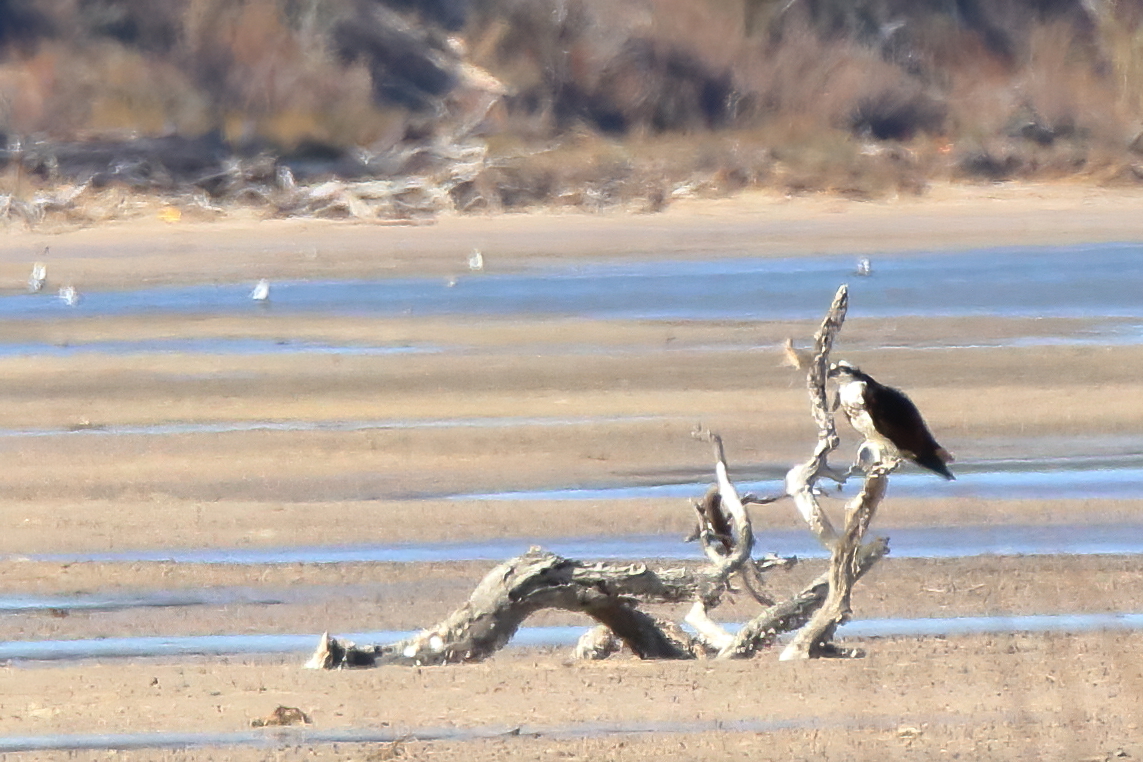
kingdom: Animalia
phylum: Chordata
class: Aves
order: Accipitriformes
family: Pandionidae
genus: Pandion
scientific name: Pandion haliaetus
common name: Osprey
